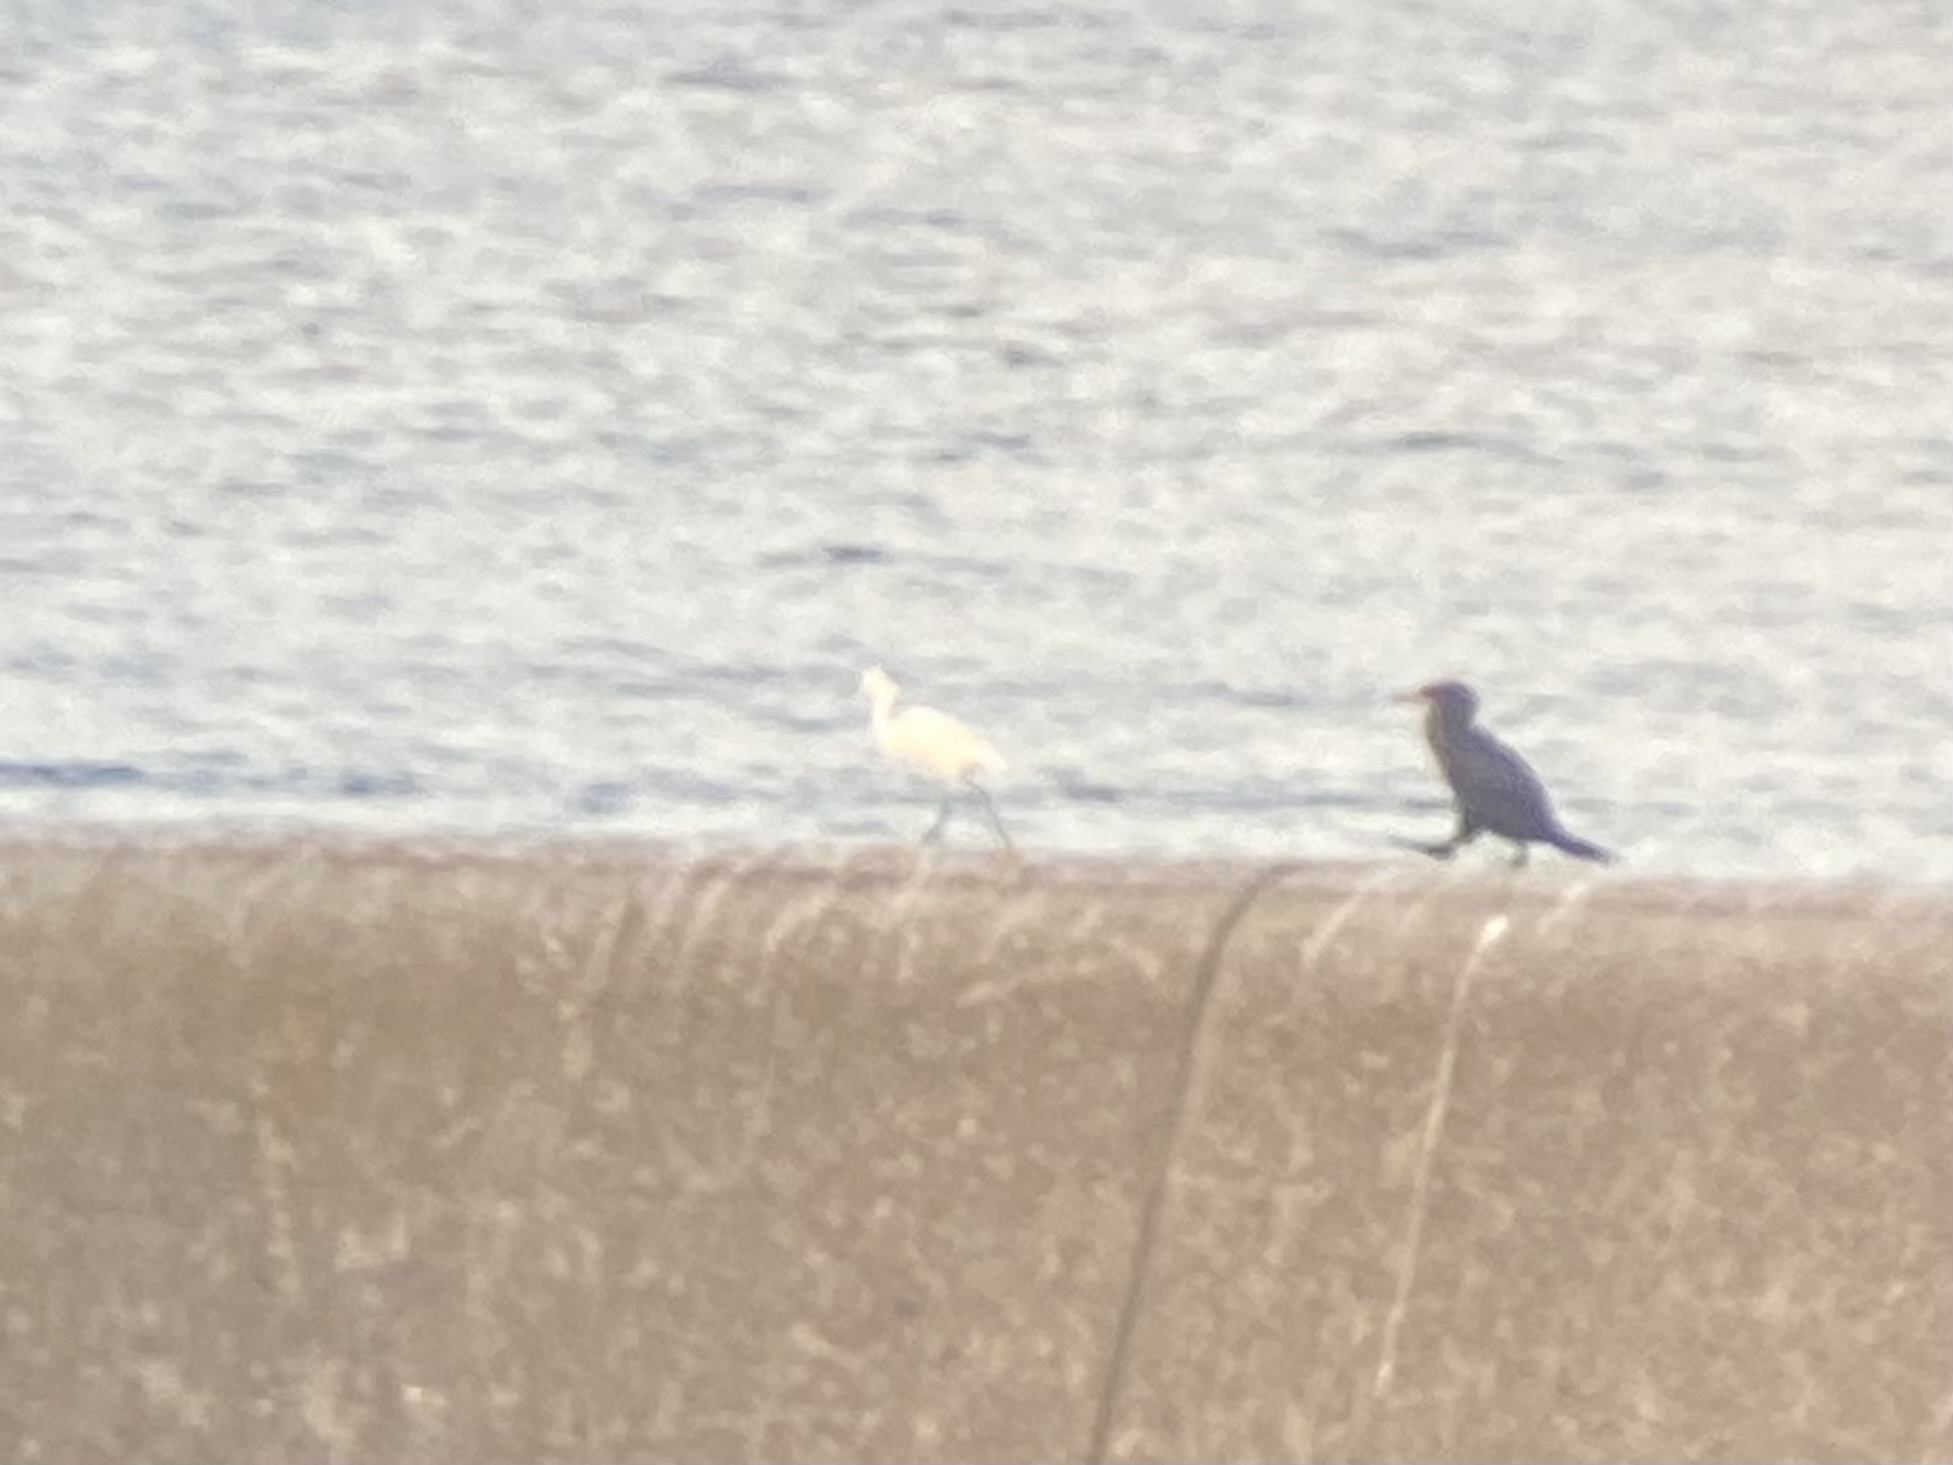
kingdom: Animalia
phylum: Chordata
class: Aves
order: Pelecaniformes
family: Ardeidae
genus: Egretta
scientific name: Egretta thula
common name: Snowy egret
